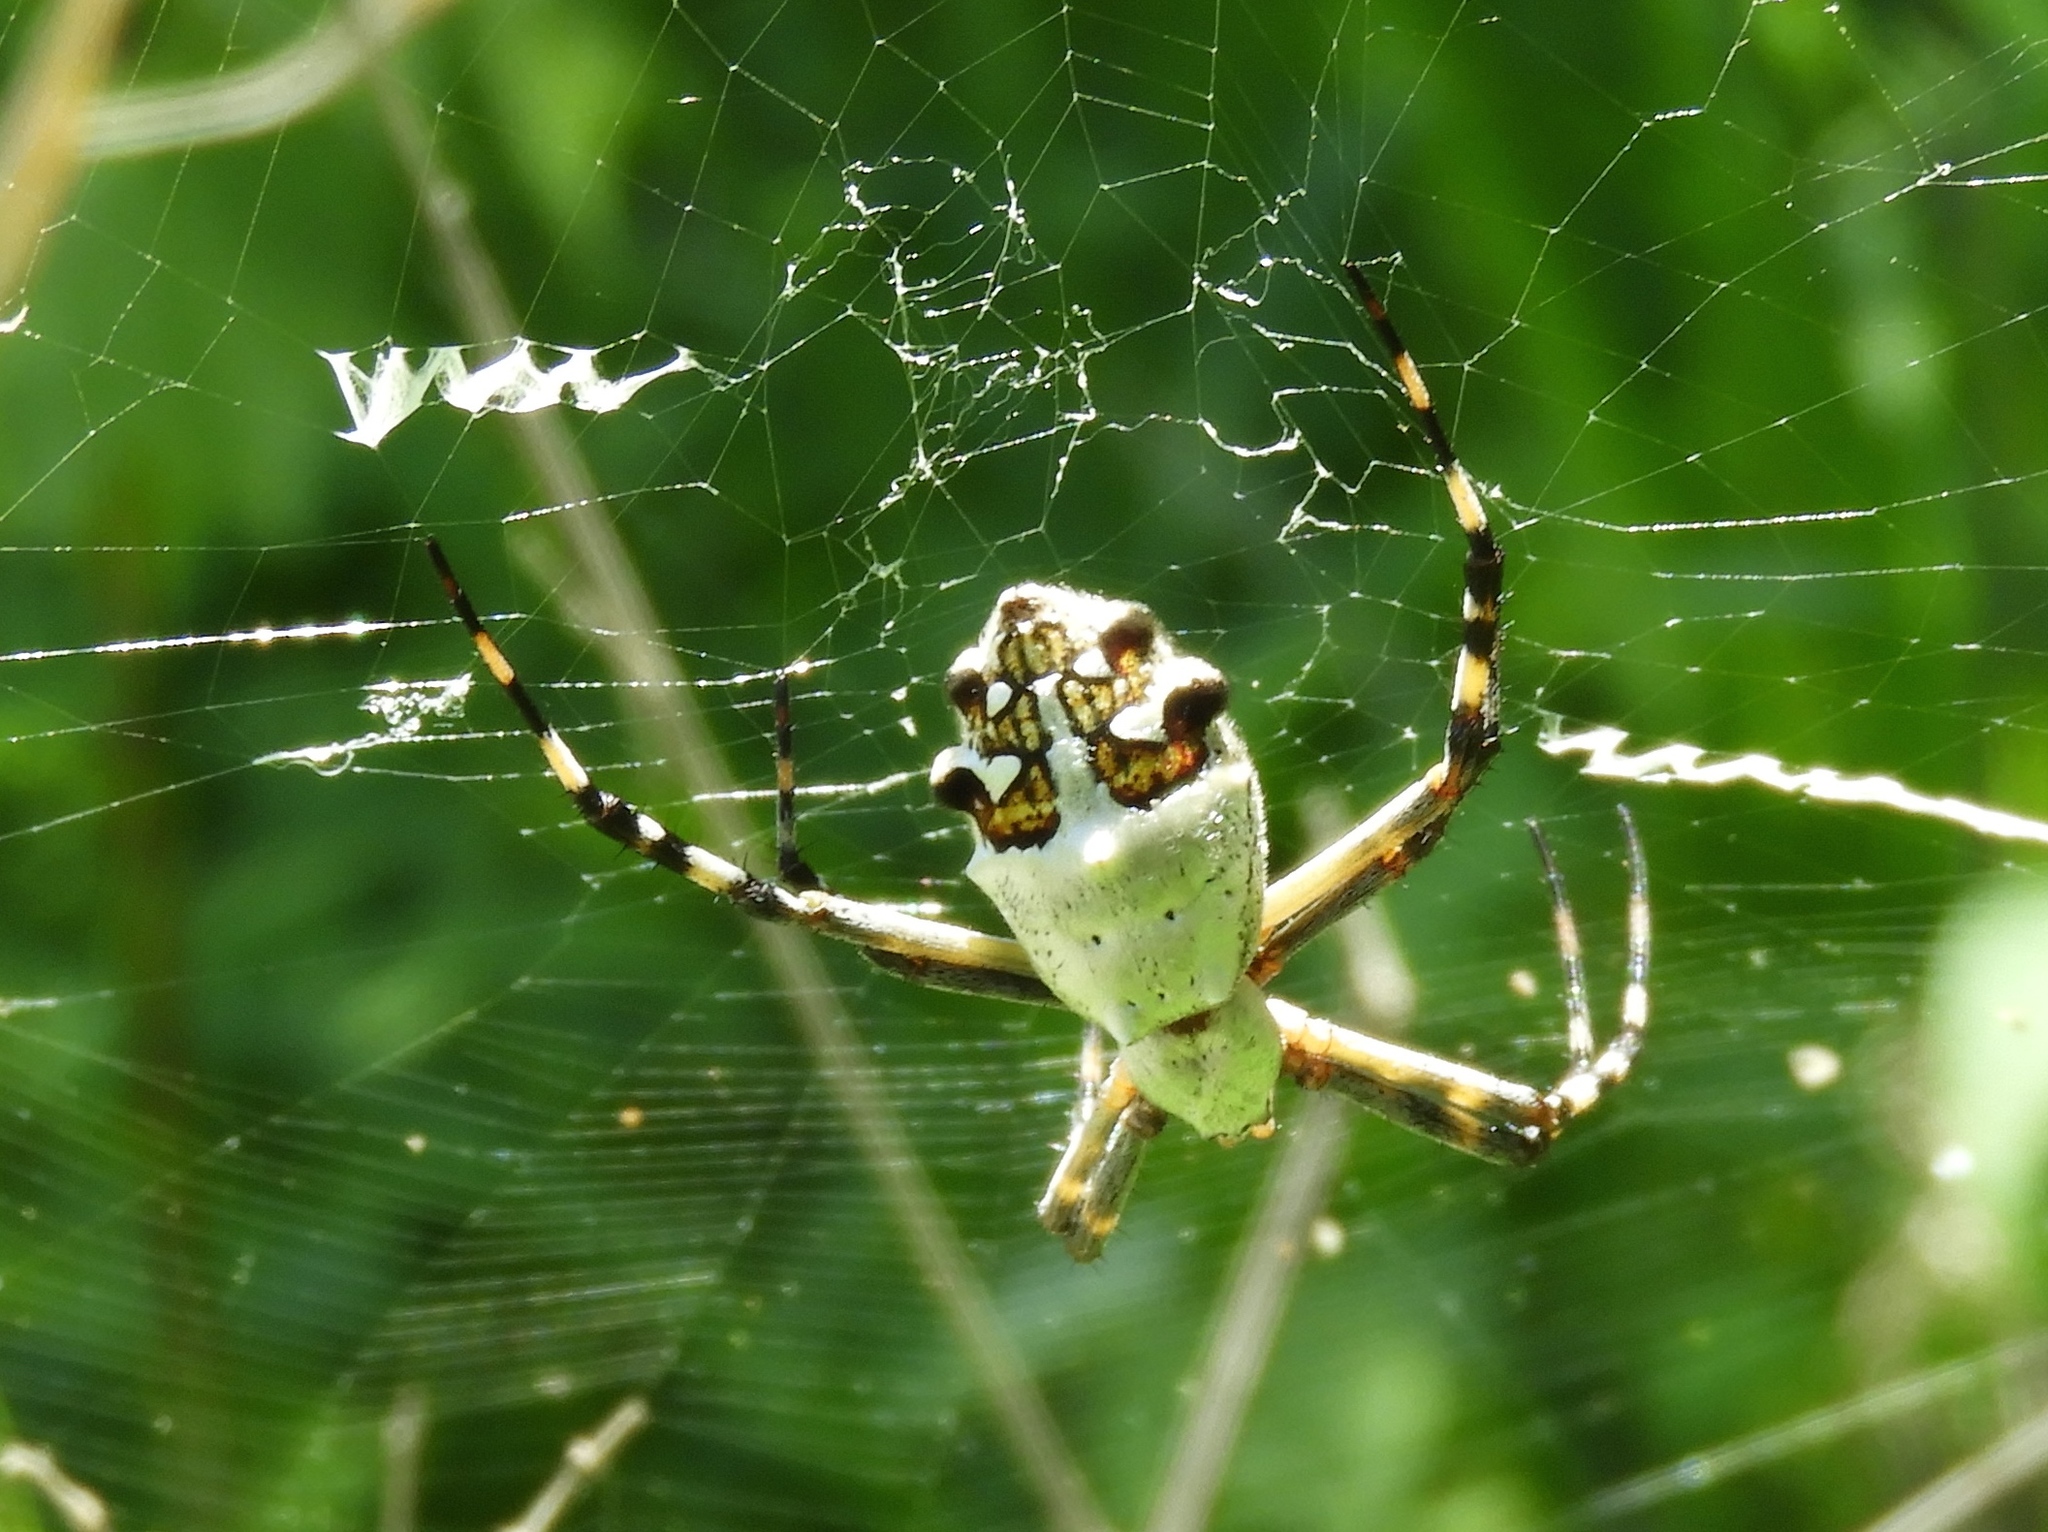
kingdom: Animalia
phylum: Arthropoda
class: Arachnida
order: Araneae
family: Araneidae
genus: Argiope
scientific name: Argiope argentata
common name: Orb weavers
